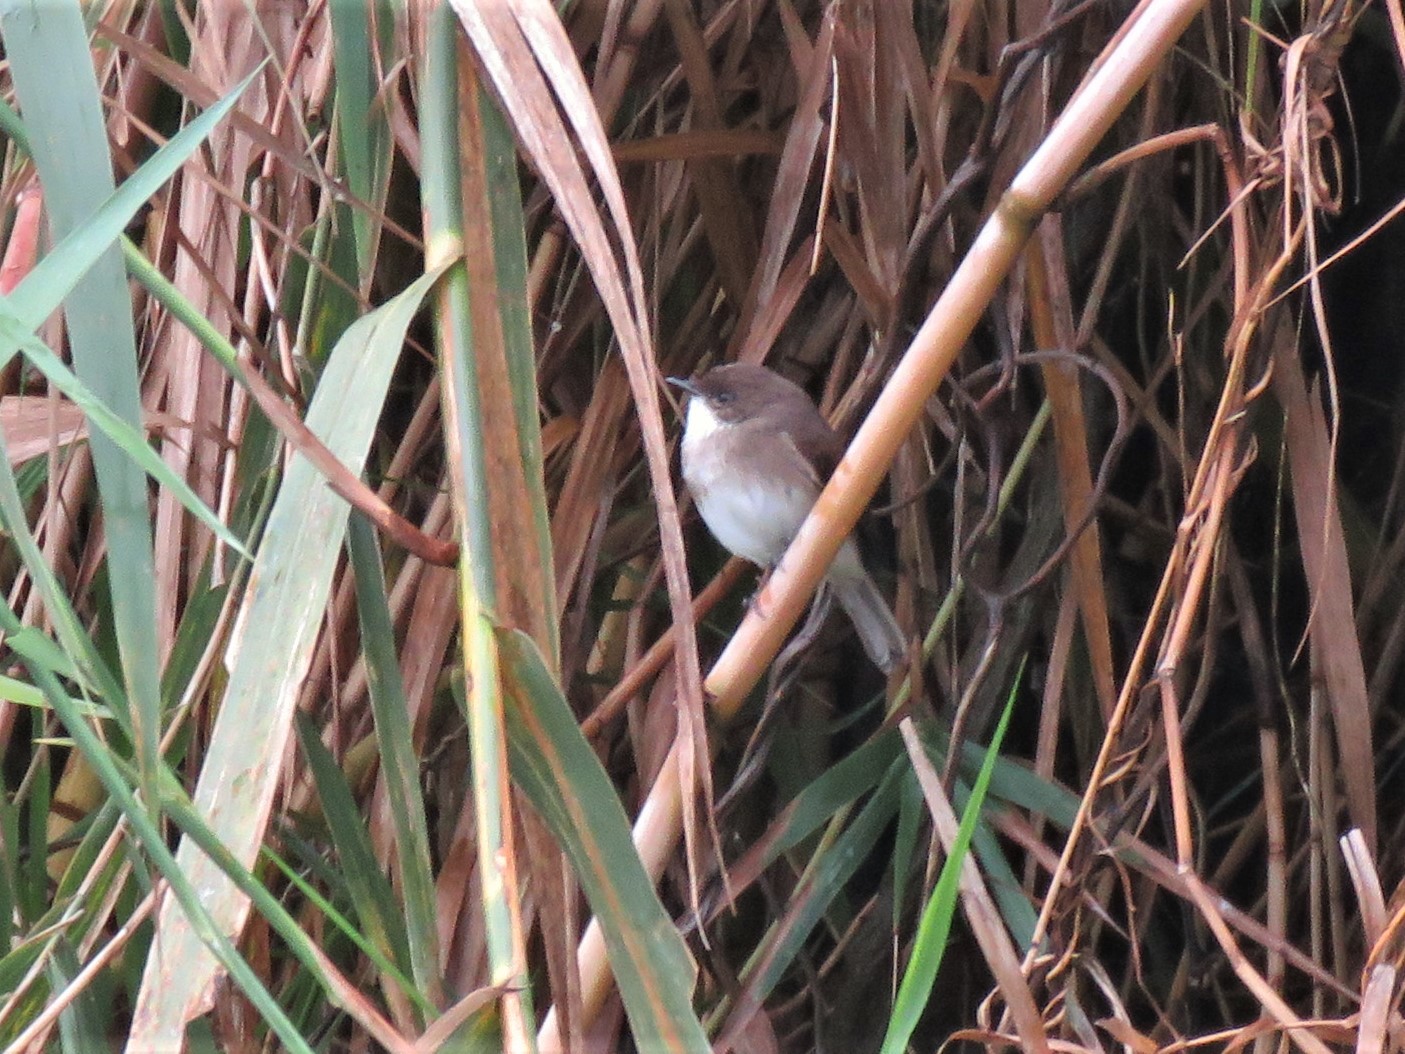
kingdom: Animalia
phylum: Chordata
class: Aves
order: Passeriformes
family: Muscicapidae
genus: Muscicapa
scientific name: Muscicapa aquatica
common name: Swamp flycatcher
